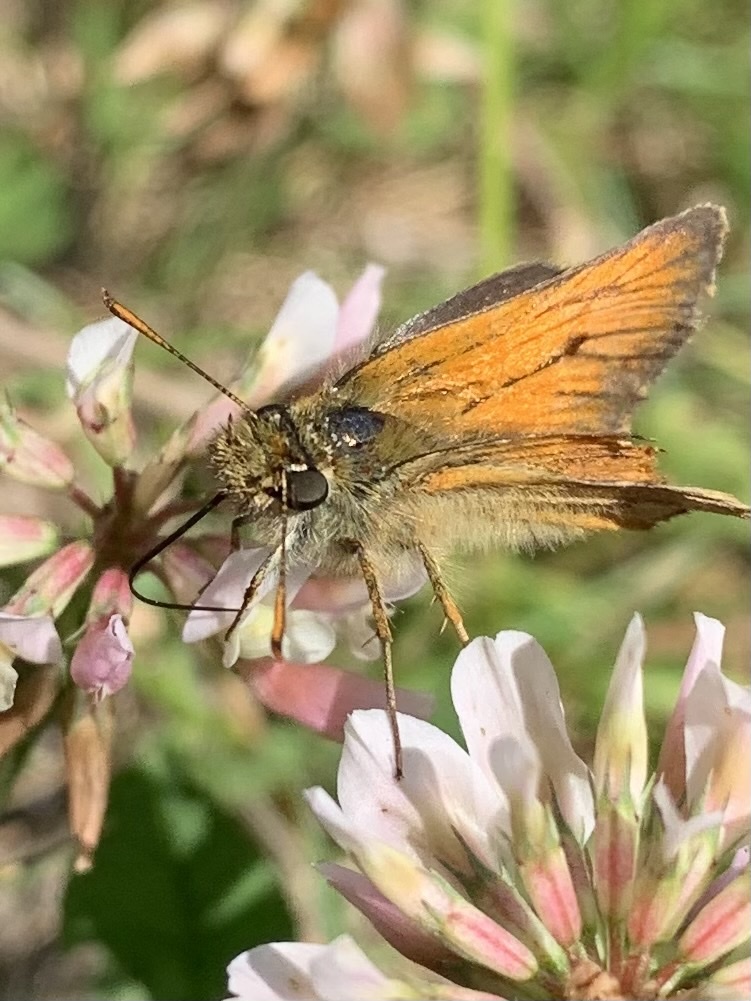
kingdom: Animalia
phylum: Arthropoda
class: Insecta
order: Lepidoptera
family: Hesperiidae
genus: Thymelicus
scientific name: Thymelicus sylvestris
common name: Small skipper
